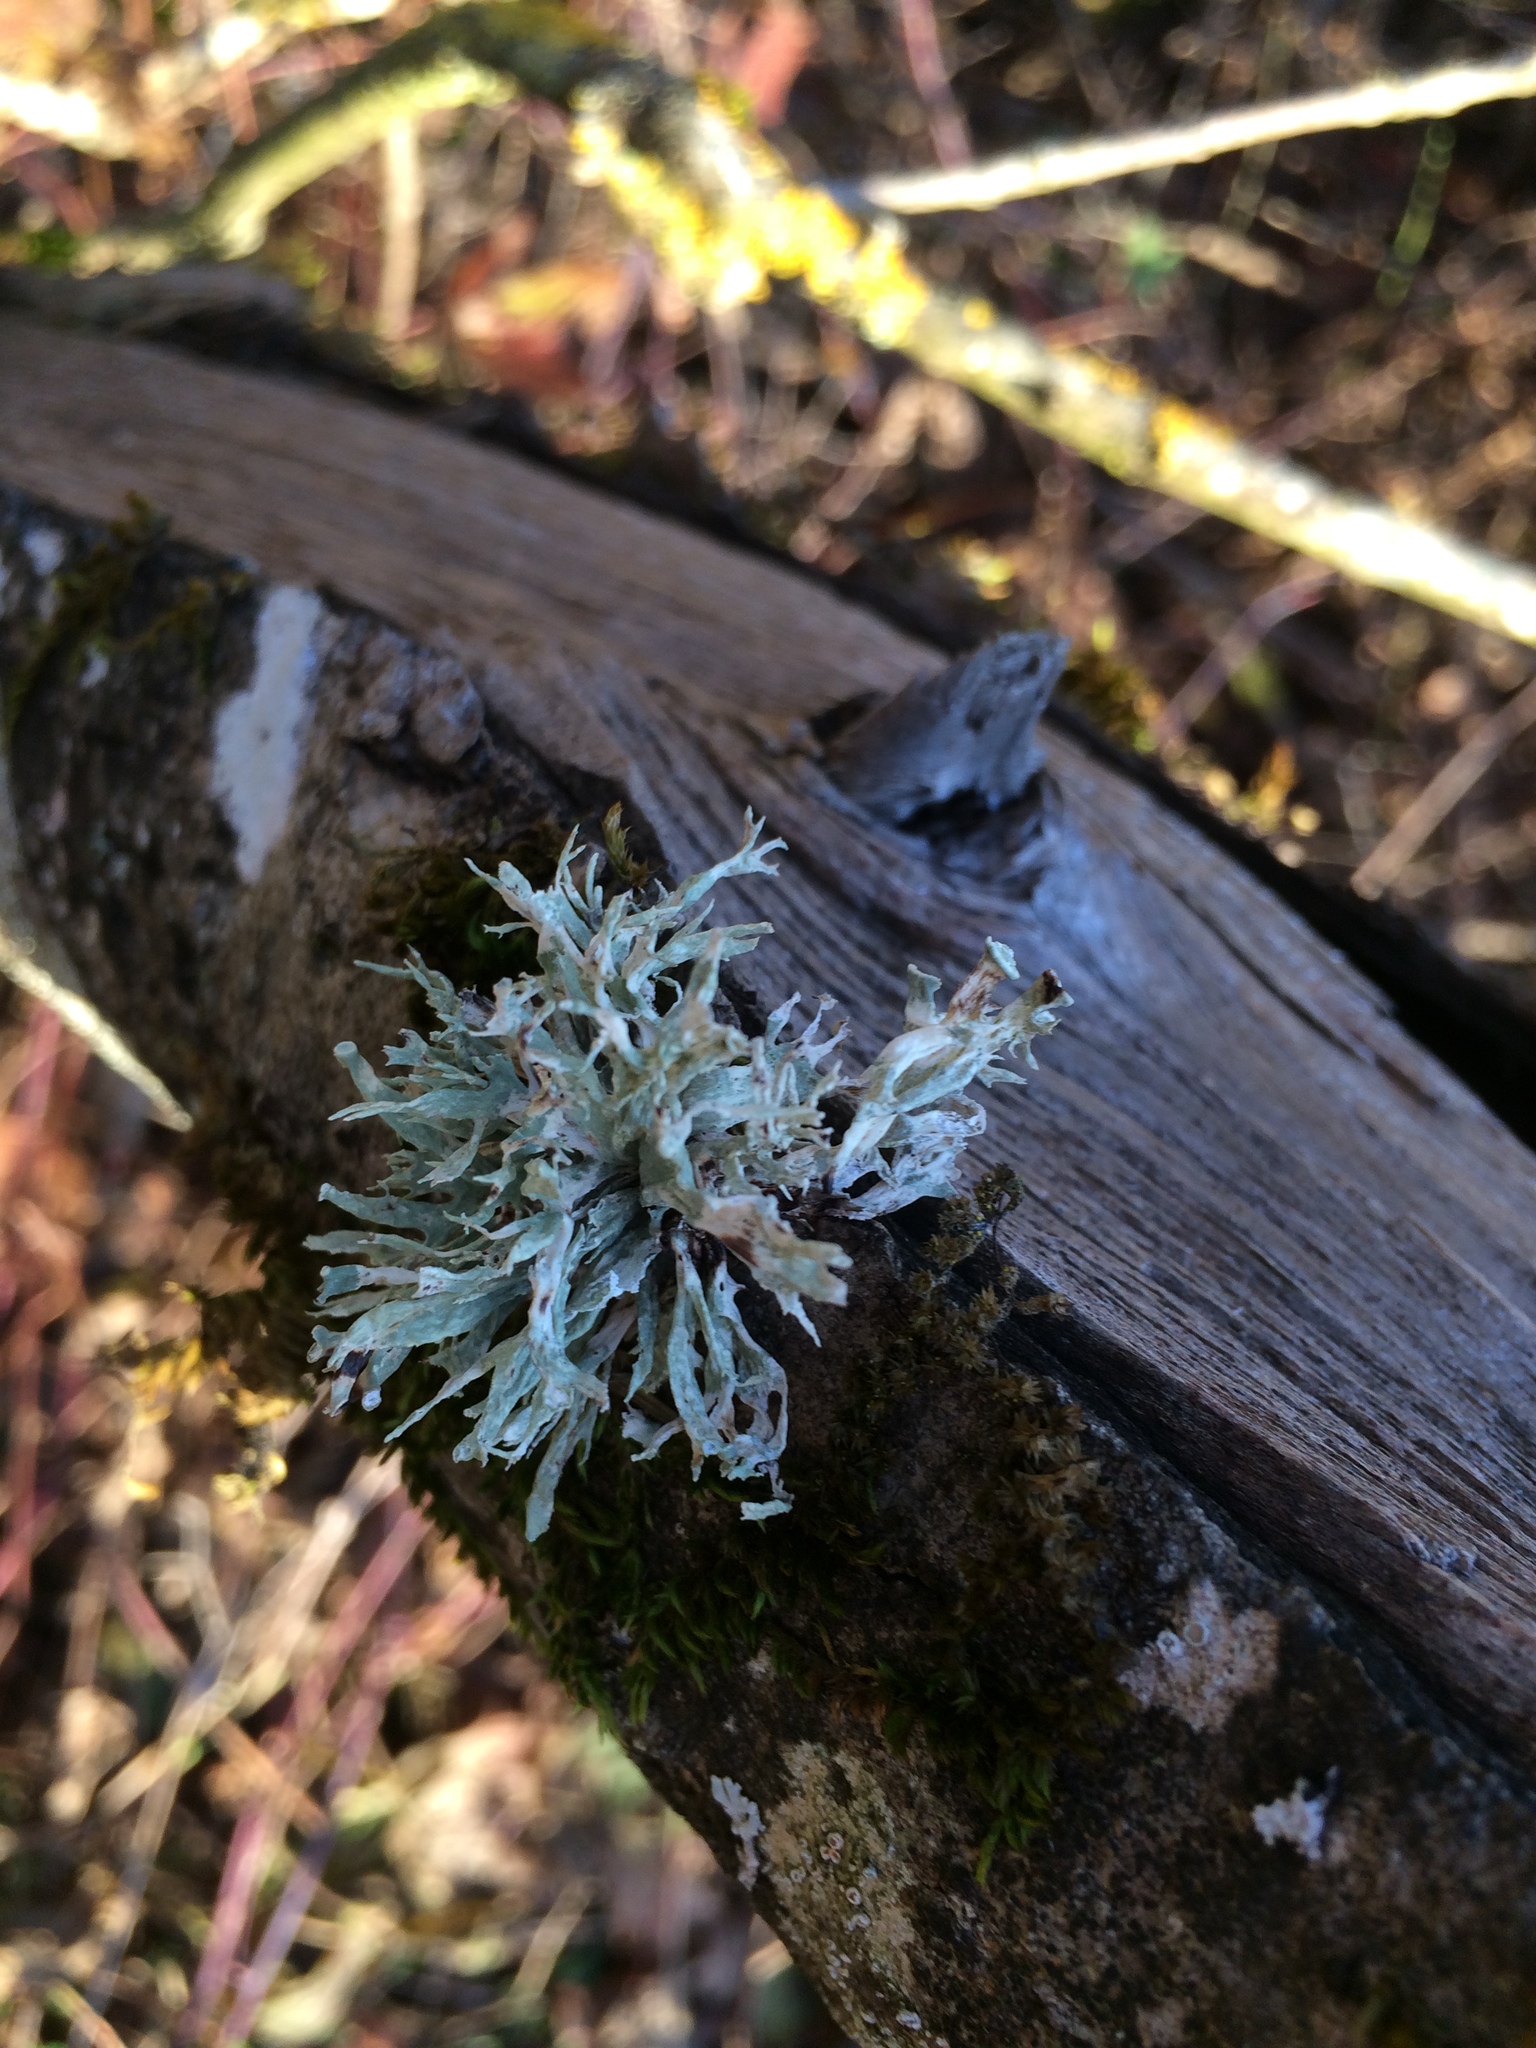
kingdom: Fungi
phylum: Ascomycota
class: Lecanoromycetes
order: Lecanorales
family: Ramalinaceae
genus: Ramalina
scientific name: Ramalina fastigiata
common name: Dotted ribbon lichen
